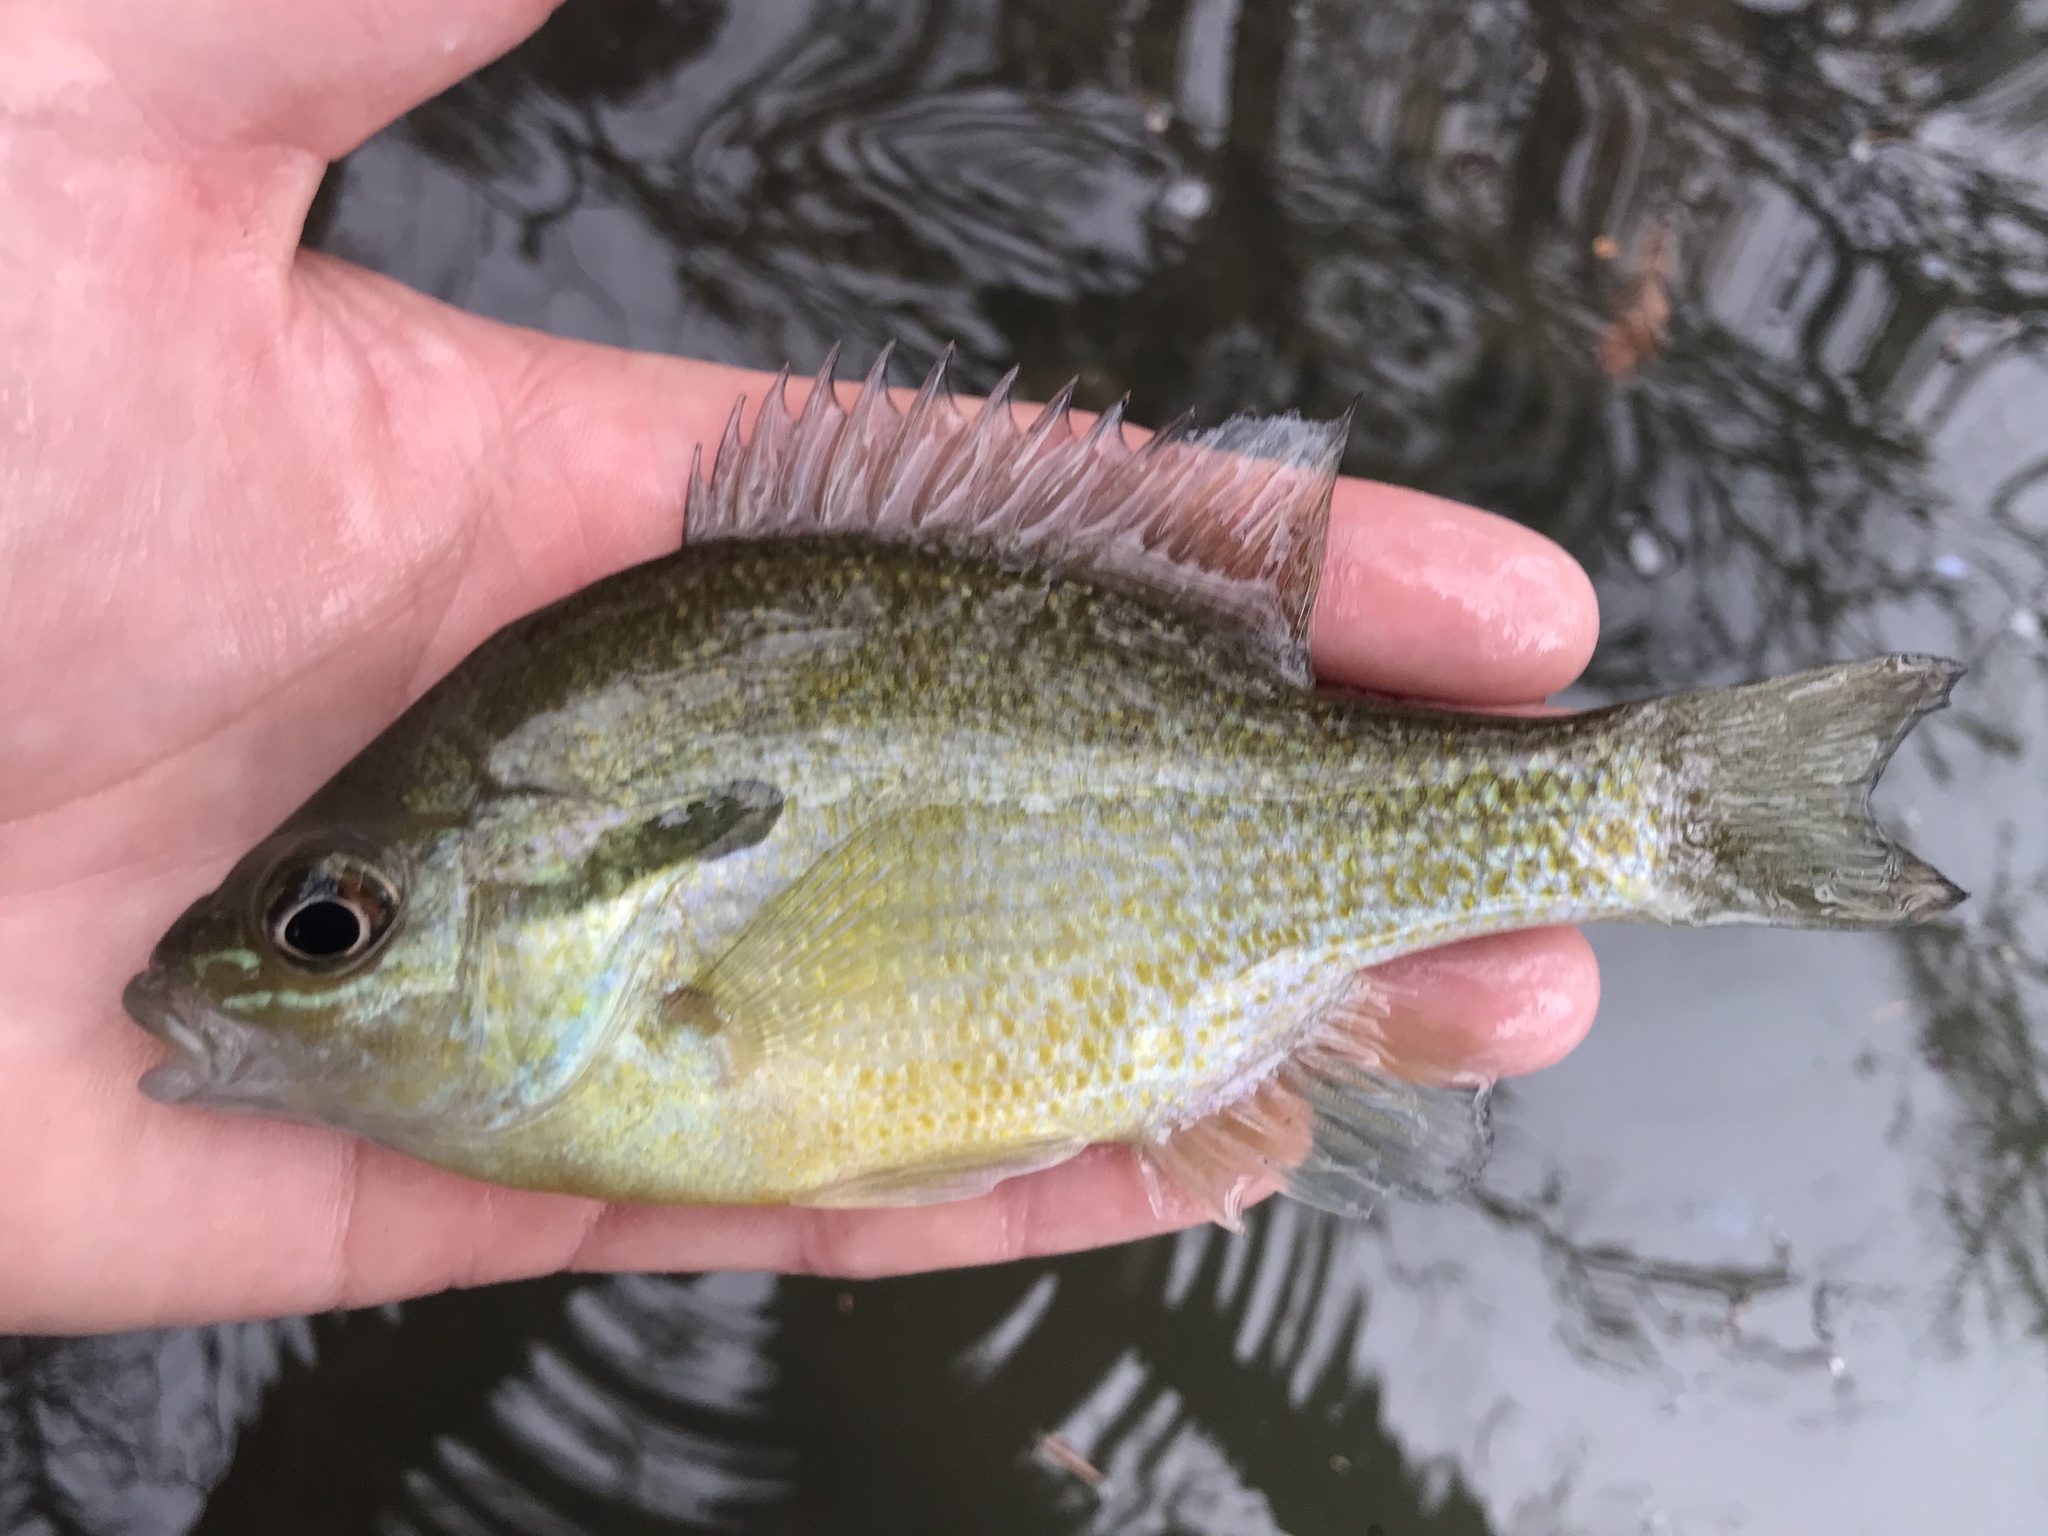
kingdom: Animalia
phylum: Chordata
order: Perciformes
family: Centrarchidae
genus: Lepomis
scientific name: Lepomis auritus
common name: Redbreast sunfish
